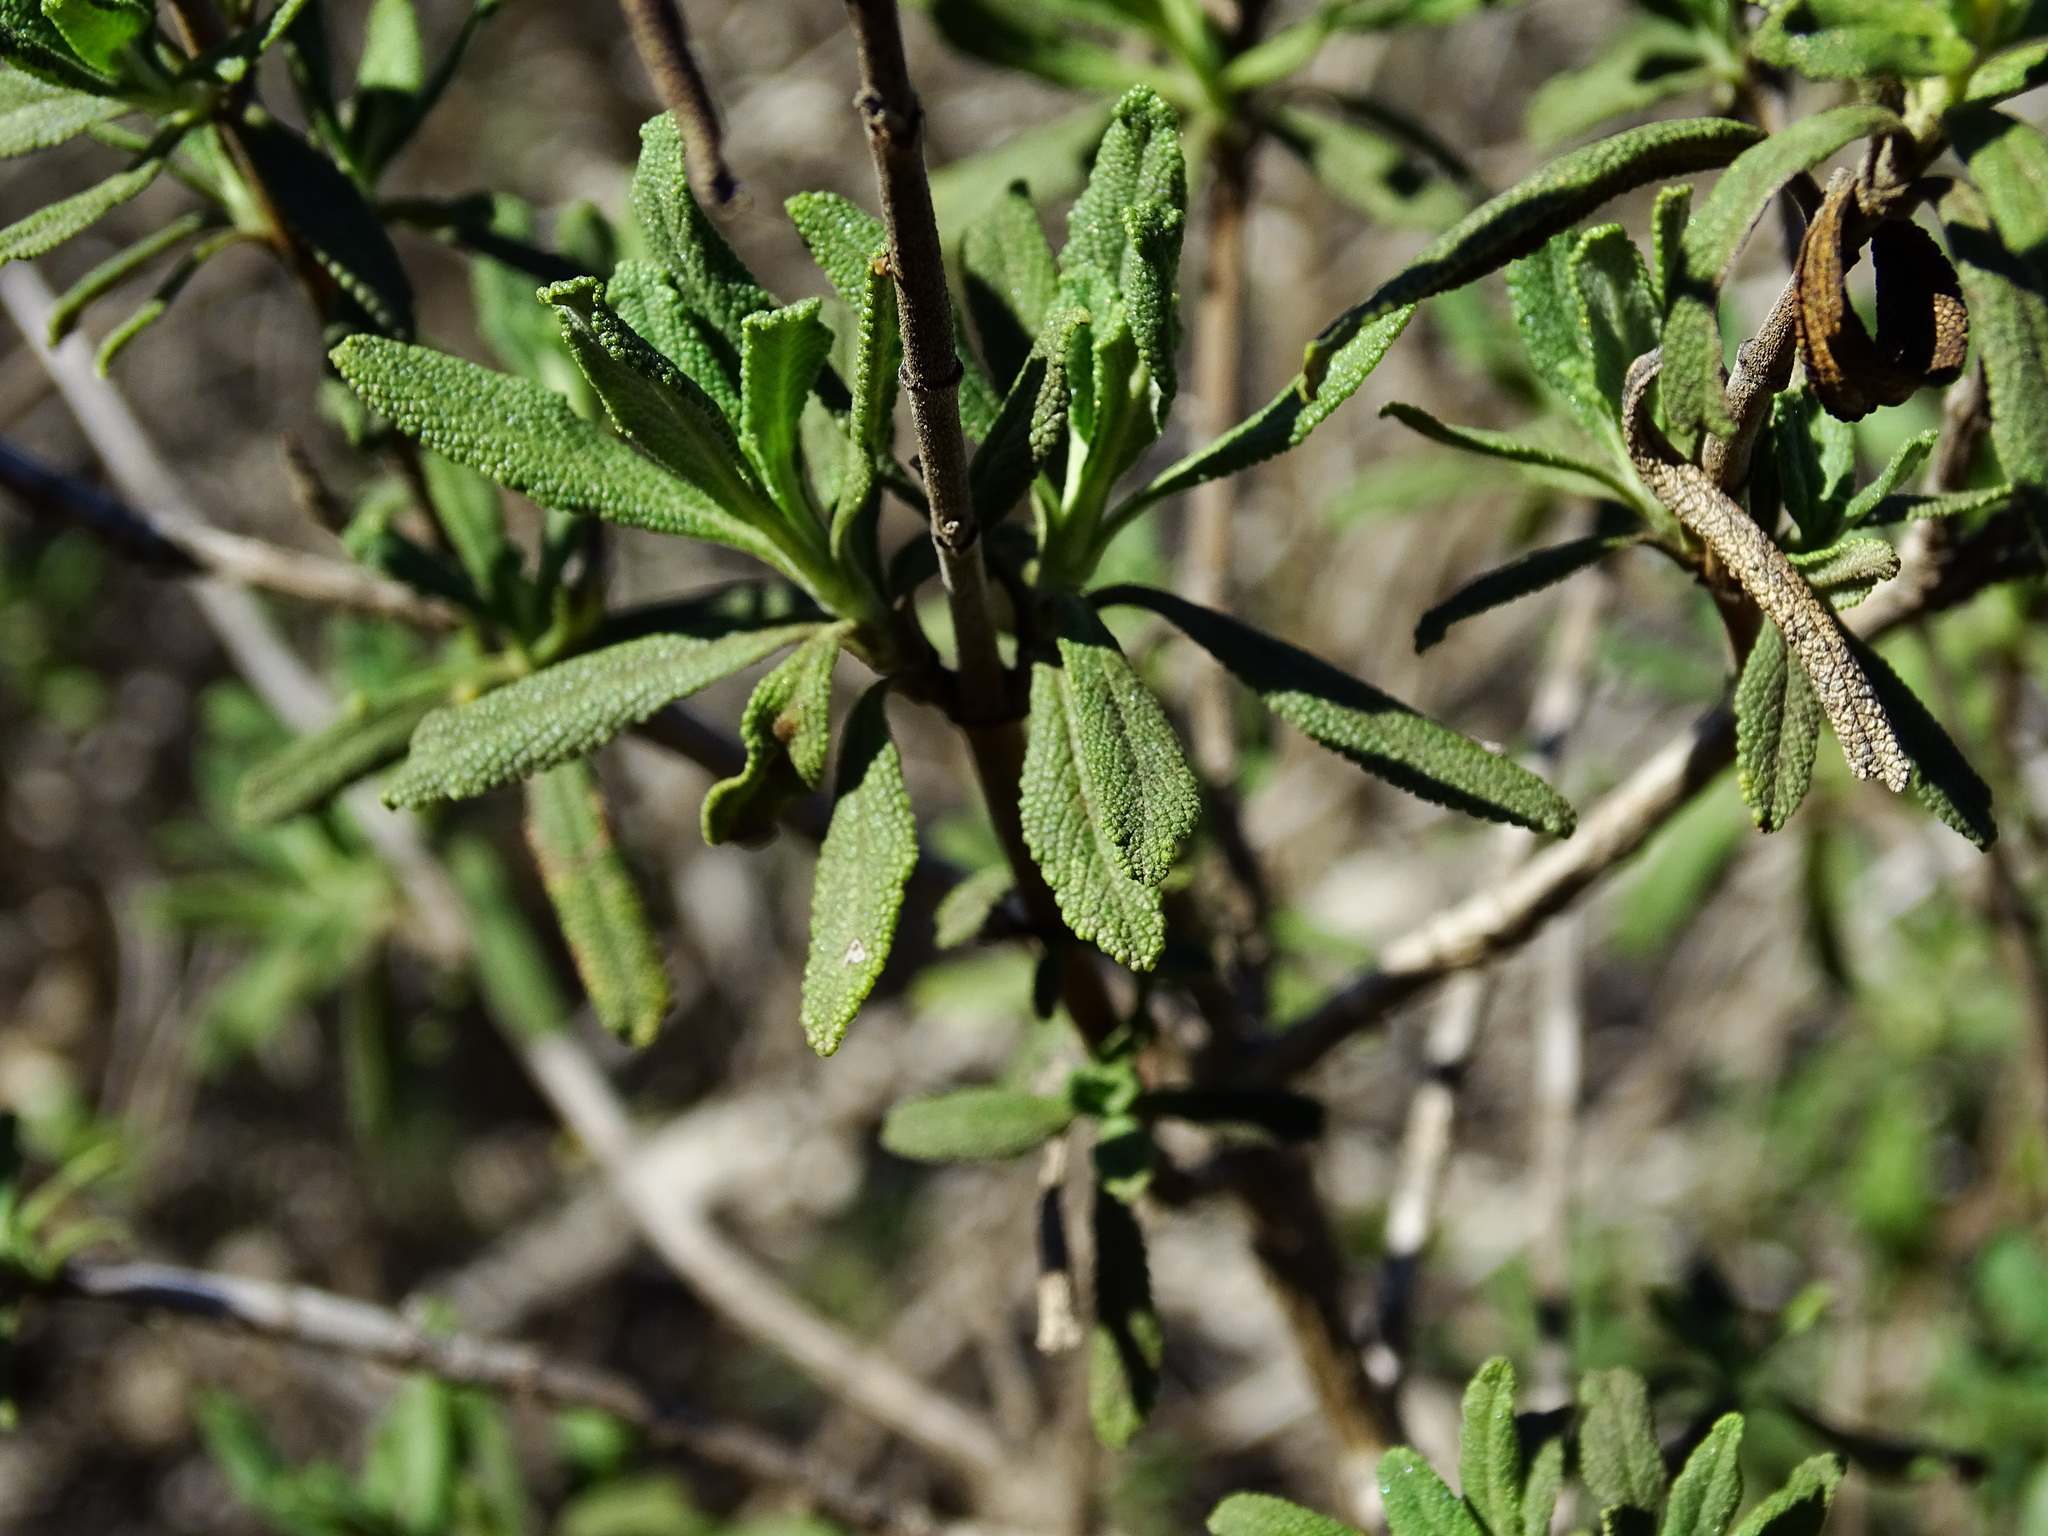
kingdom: Plantae
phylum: Tracheophyta
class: Magnoliopsida
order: Lamiales
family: Lamiaceae
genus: Salvia
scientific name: Salvia mellifera
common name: Black sage
